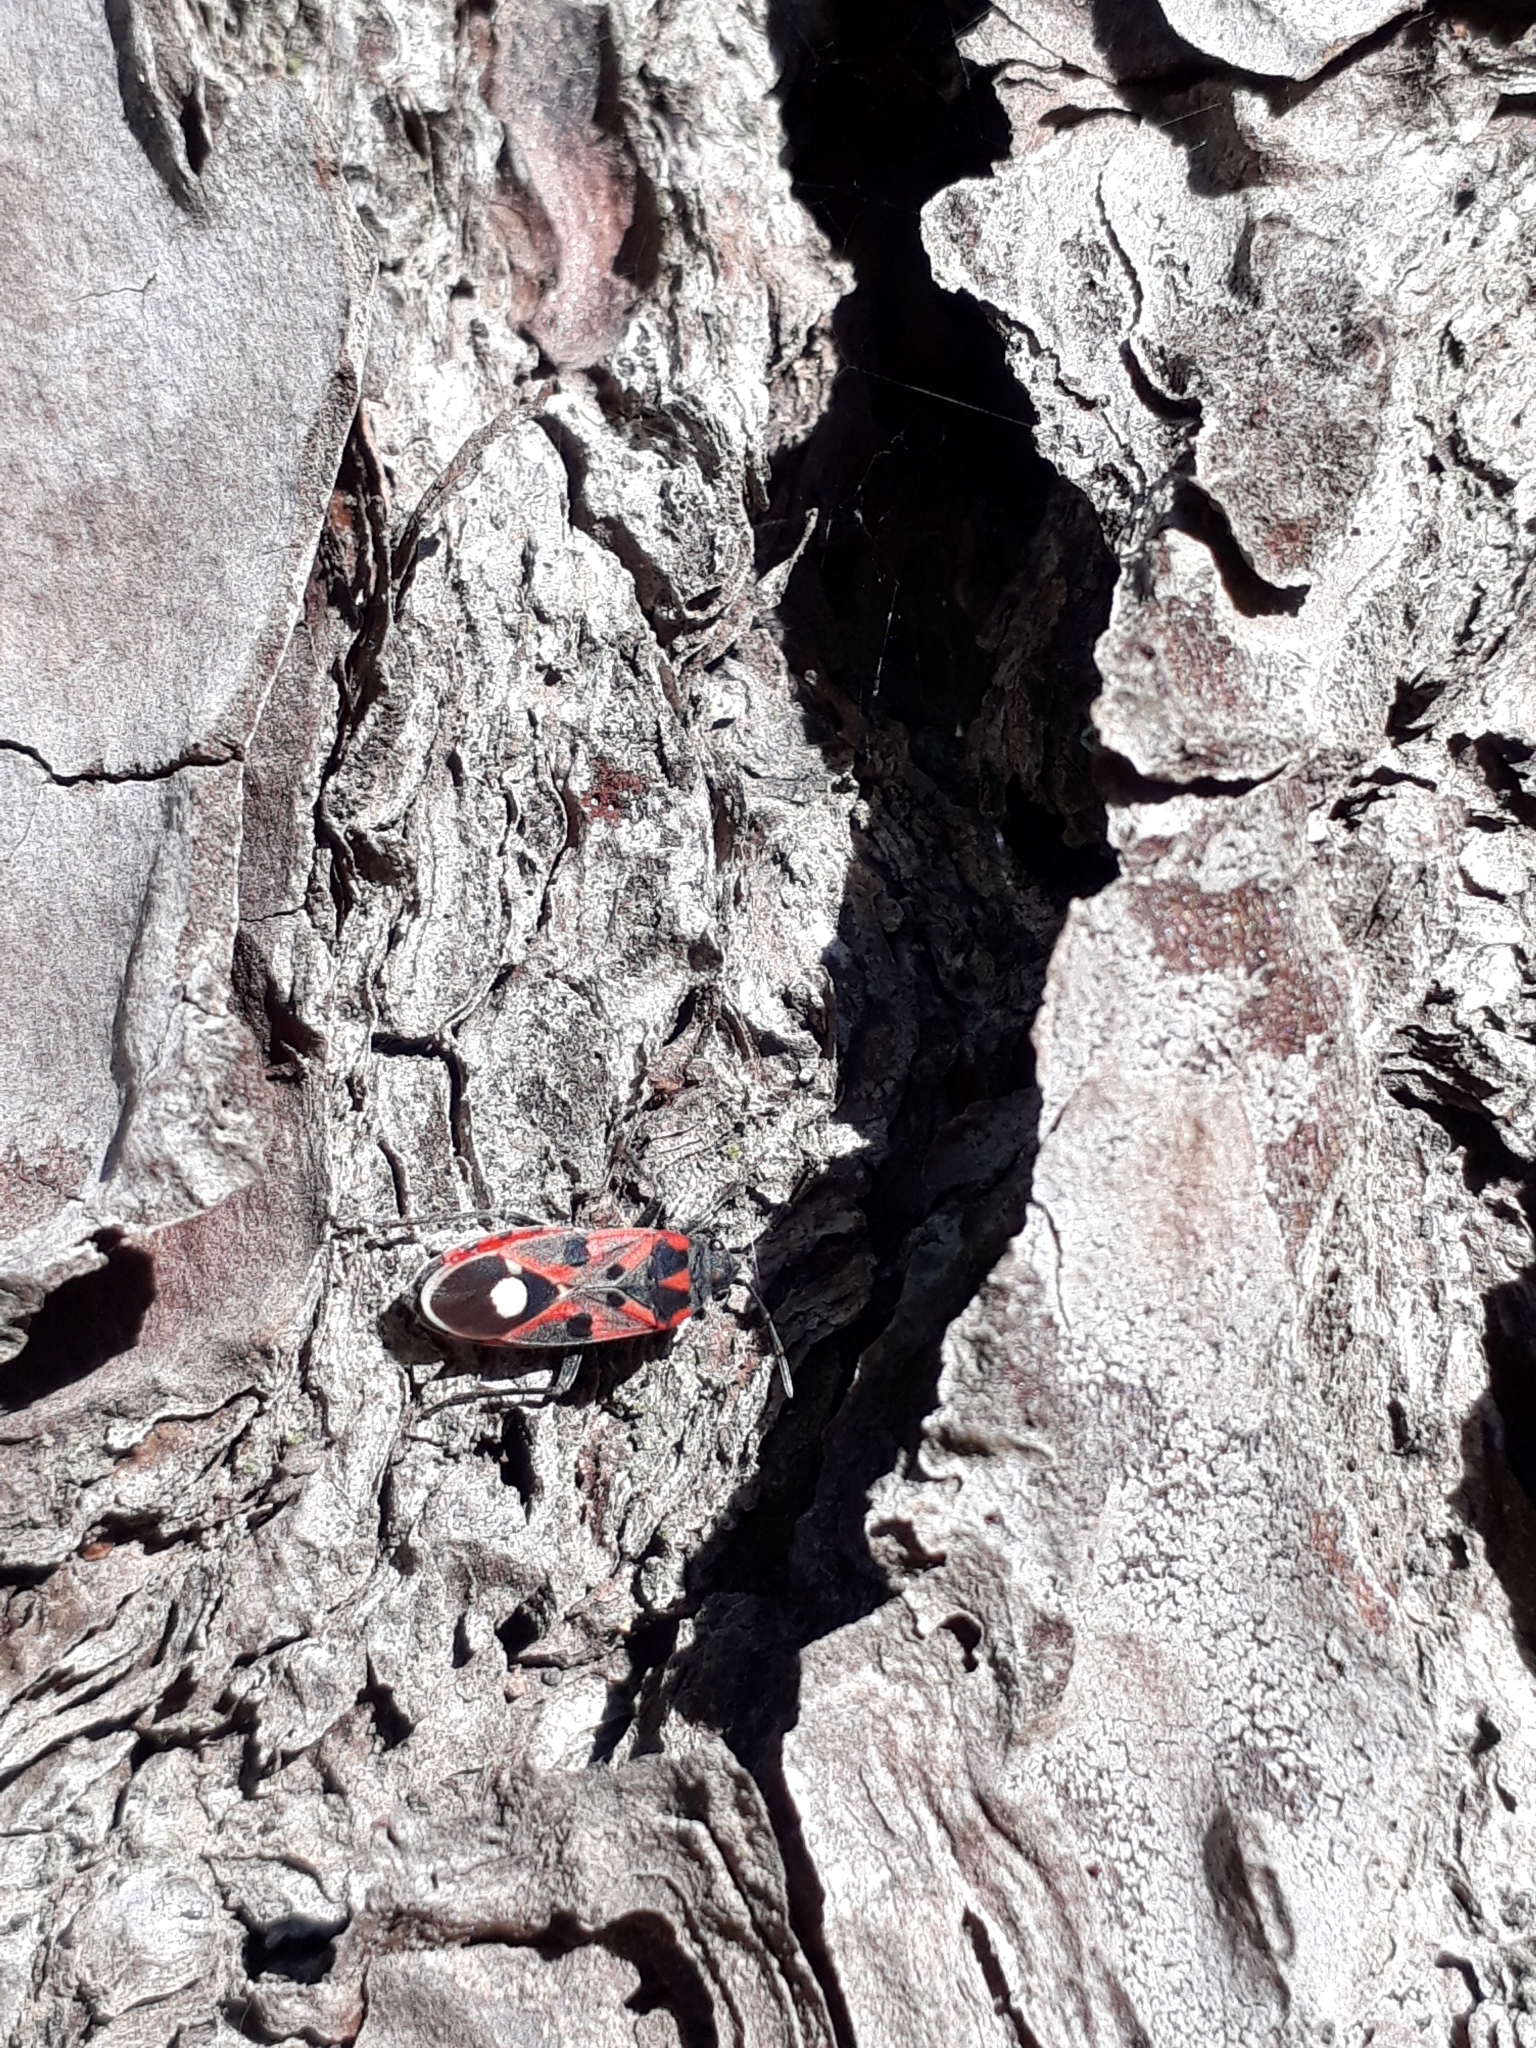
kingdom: Animalia
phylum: Arthropoda
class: Insecta
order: Hemiptera
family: Lygaeidae
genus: Lygaeus
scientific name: Lygaeus alboornatus
